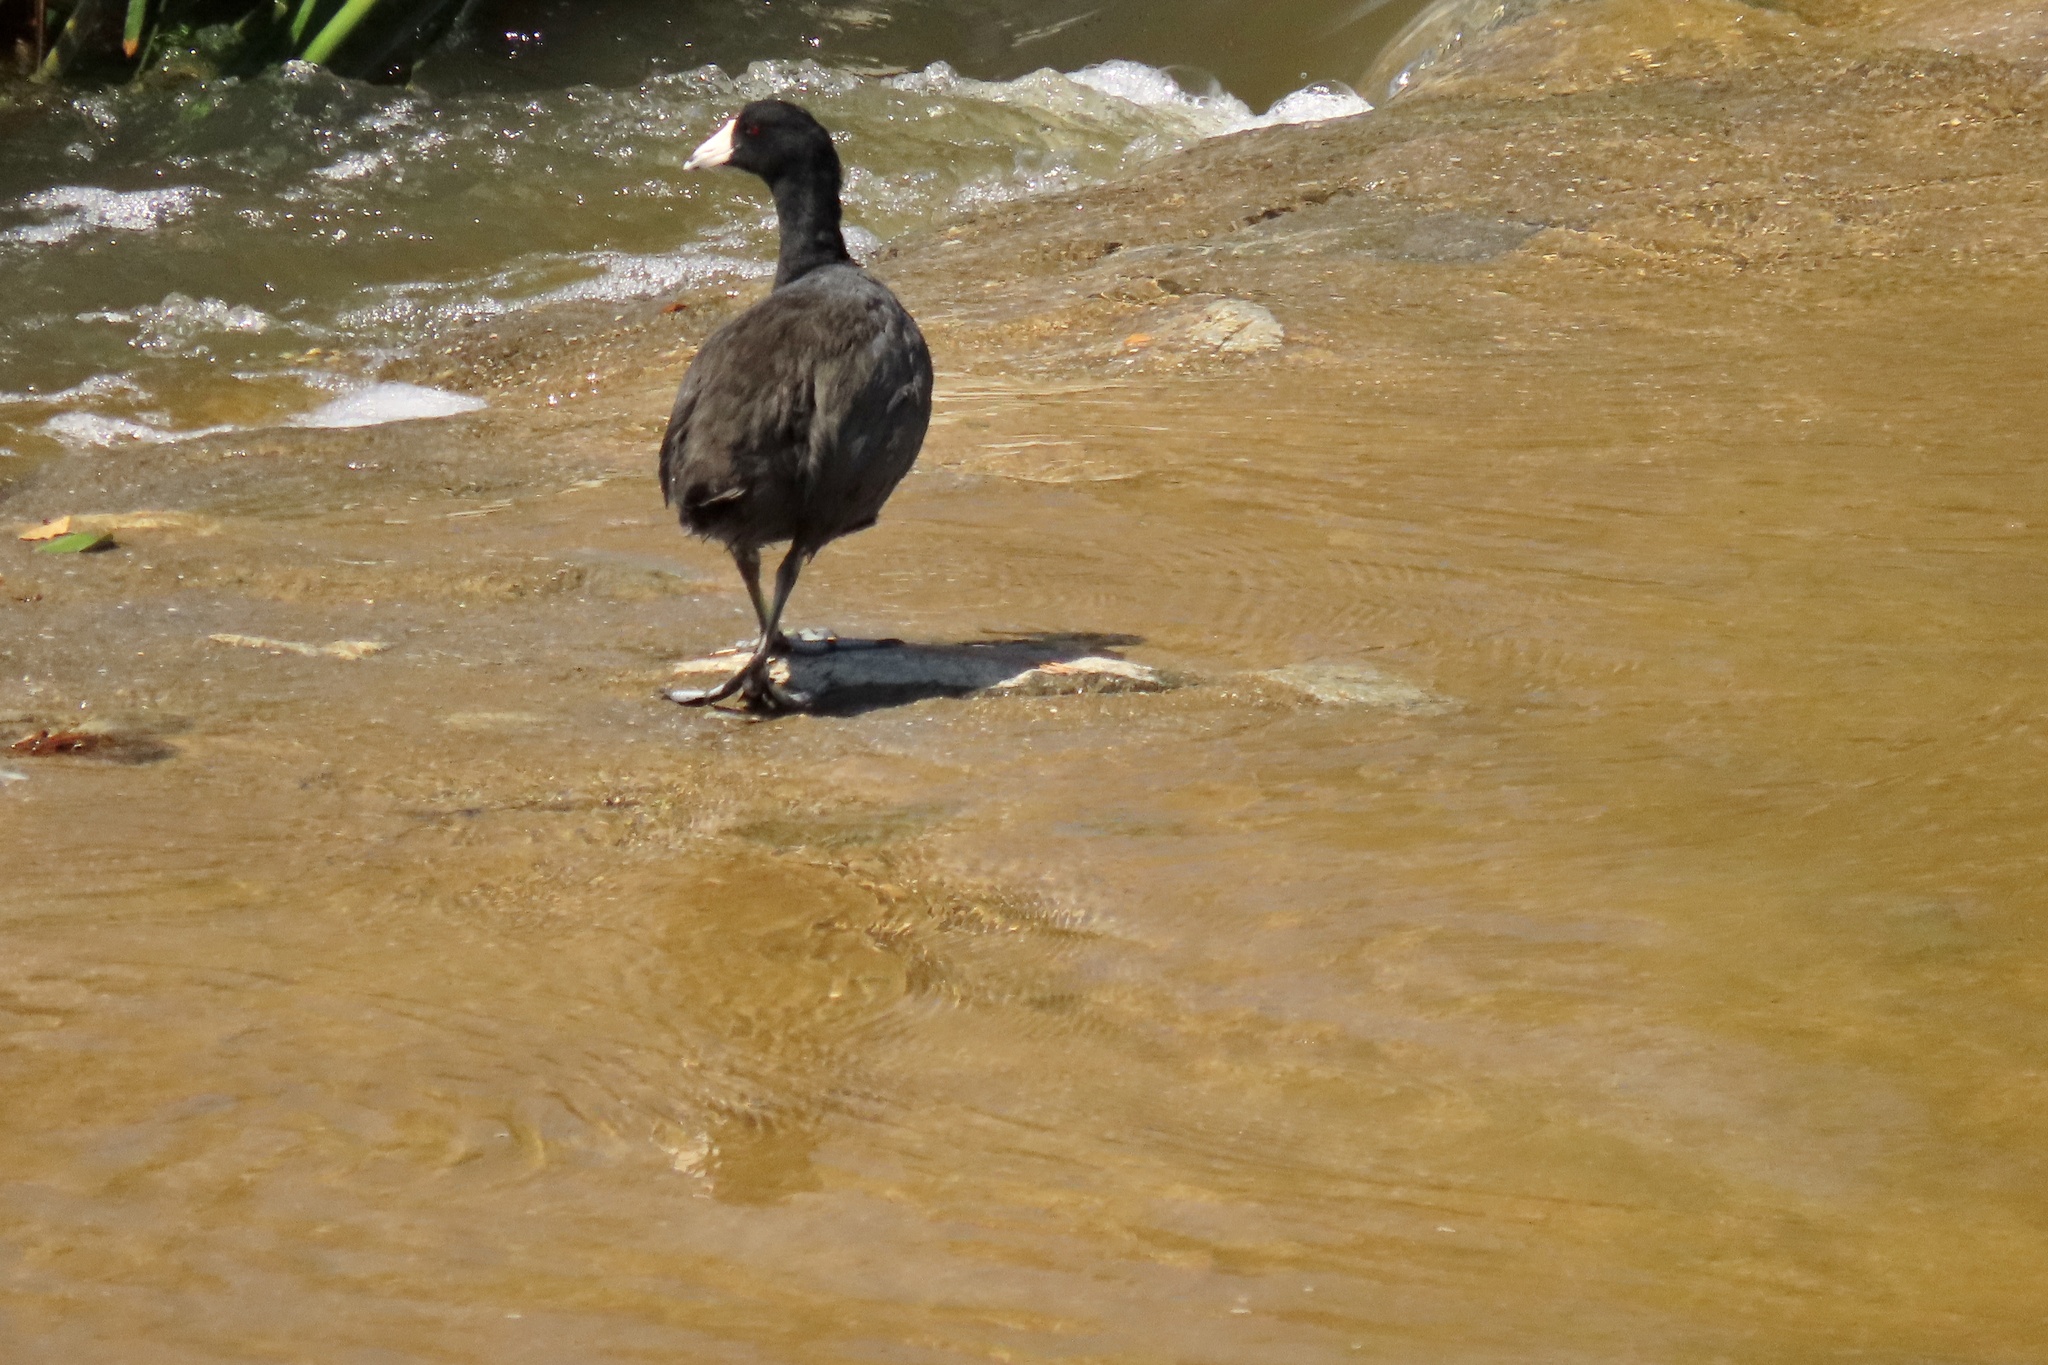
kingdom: Animalia
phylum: Chordata
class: Aves
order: Gruiformes
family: Rallidae
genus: Fulica
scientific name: Fulica americana
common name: American coot
